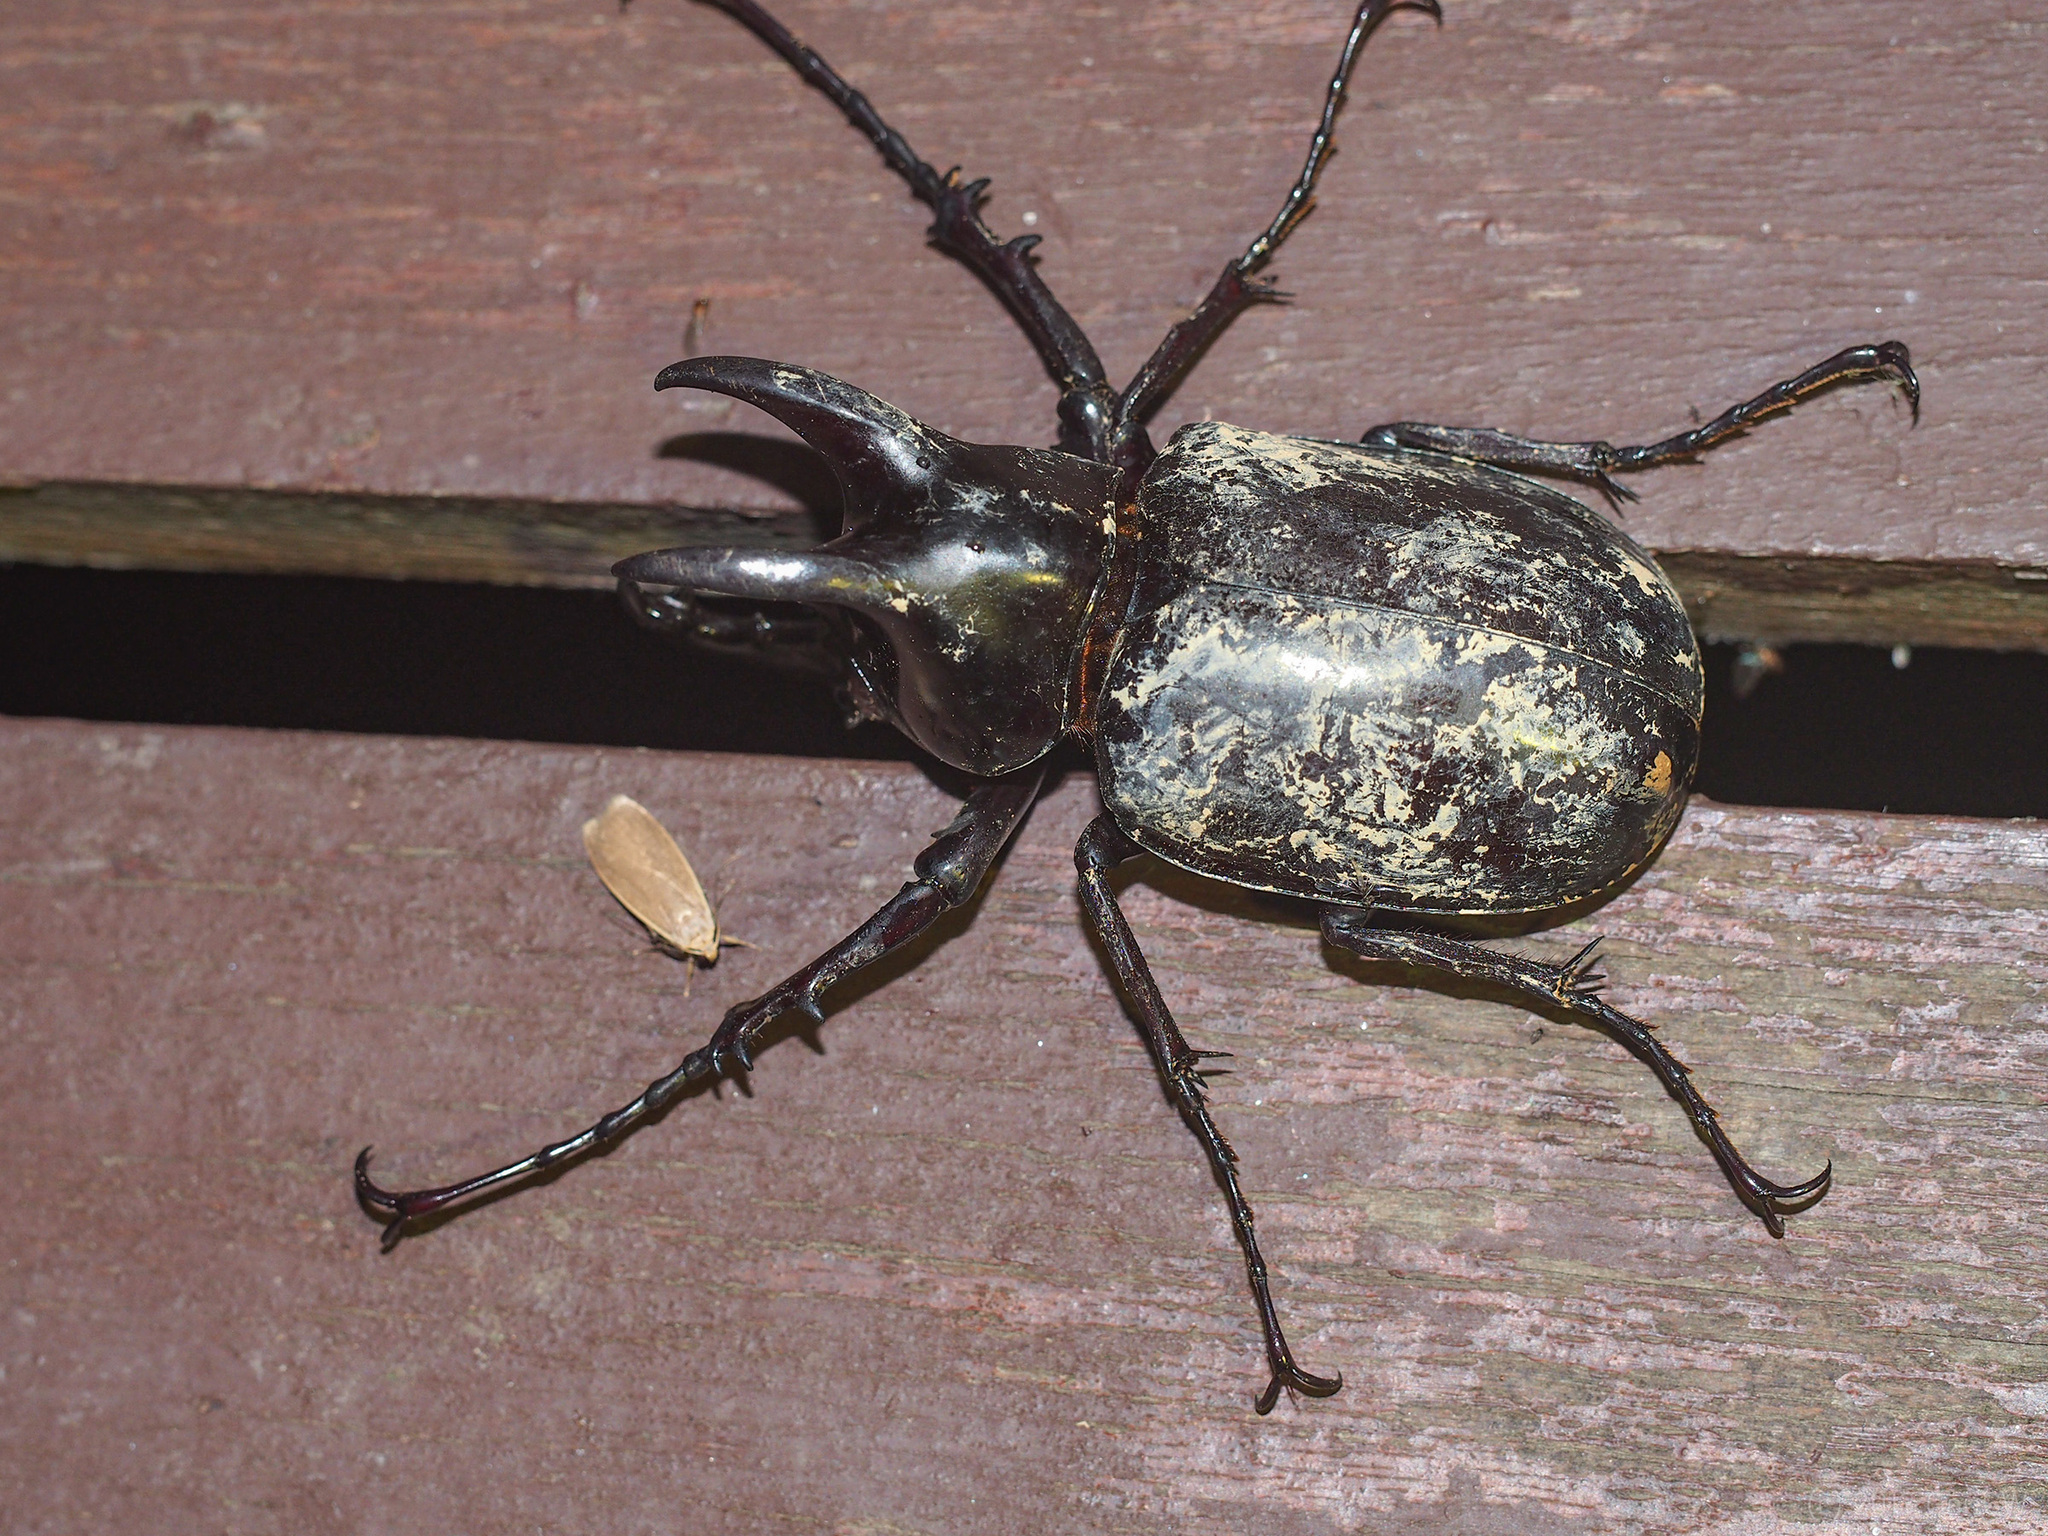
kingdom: Animalia
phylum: Arthropoda
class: Insecta
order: Coleoptera
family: Scarabaeidae
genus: Chalcosoma
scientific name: Chalcosoma moellenkampi
